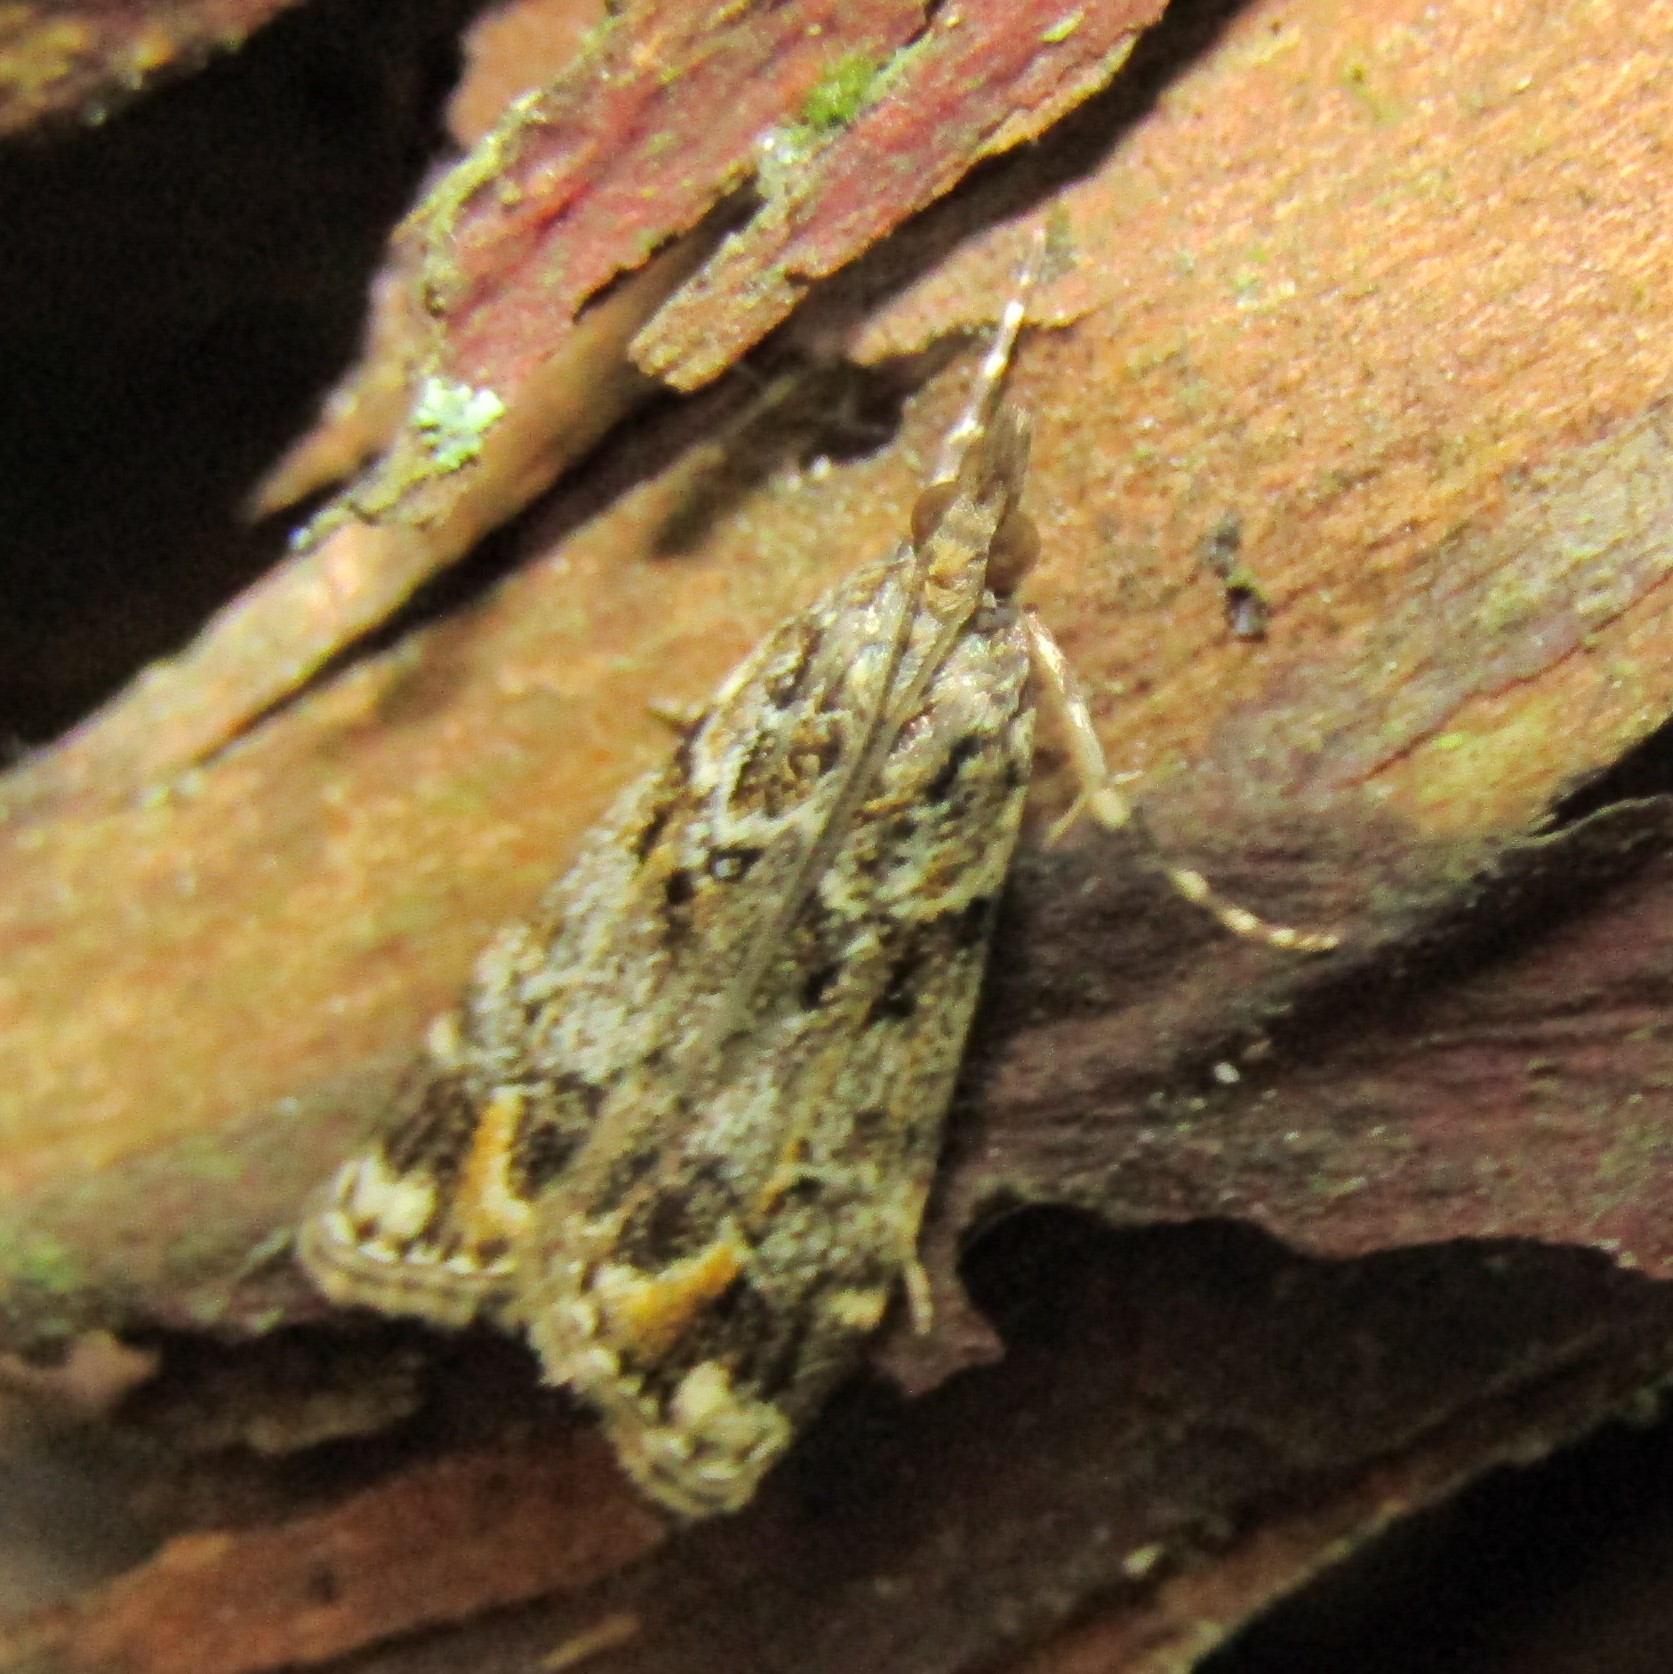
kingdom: Animalia
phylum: Arthropoda
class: Insecta
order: Lepidoptera
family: Crambidae
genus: Eudonia
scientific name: Eudonia minualis
